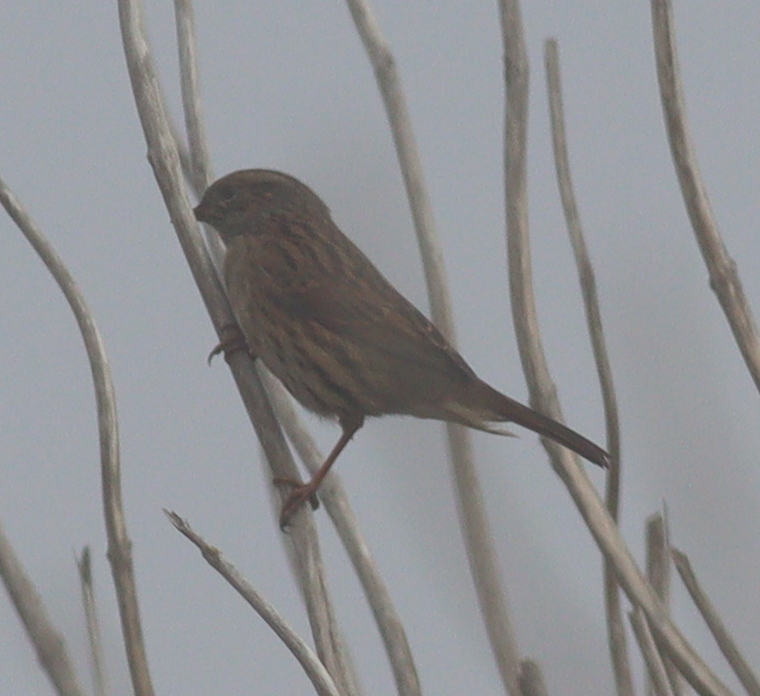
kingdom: Animalia
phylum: Chordata
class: Aves
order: Passeriformes
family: Prunellidae
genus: Prunella
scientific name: Prunella modularis
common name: Dunnock
